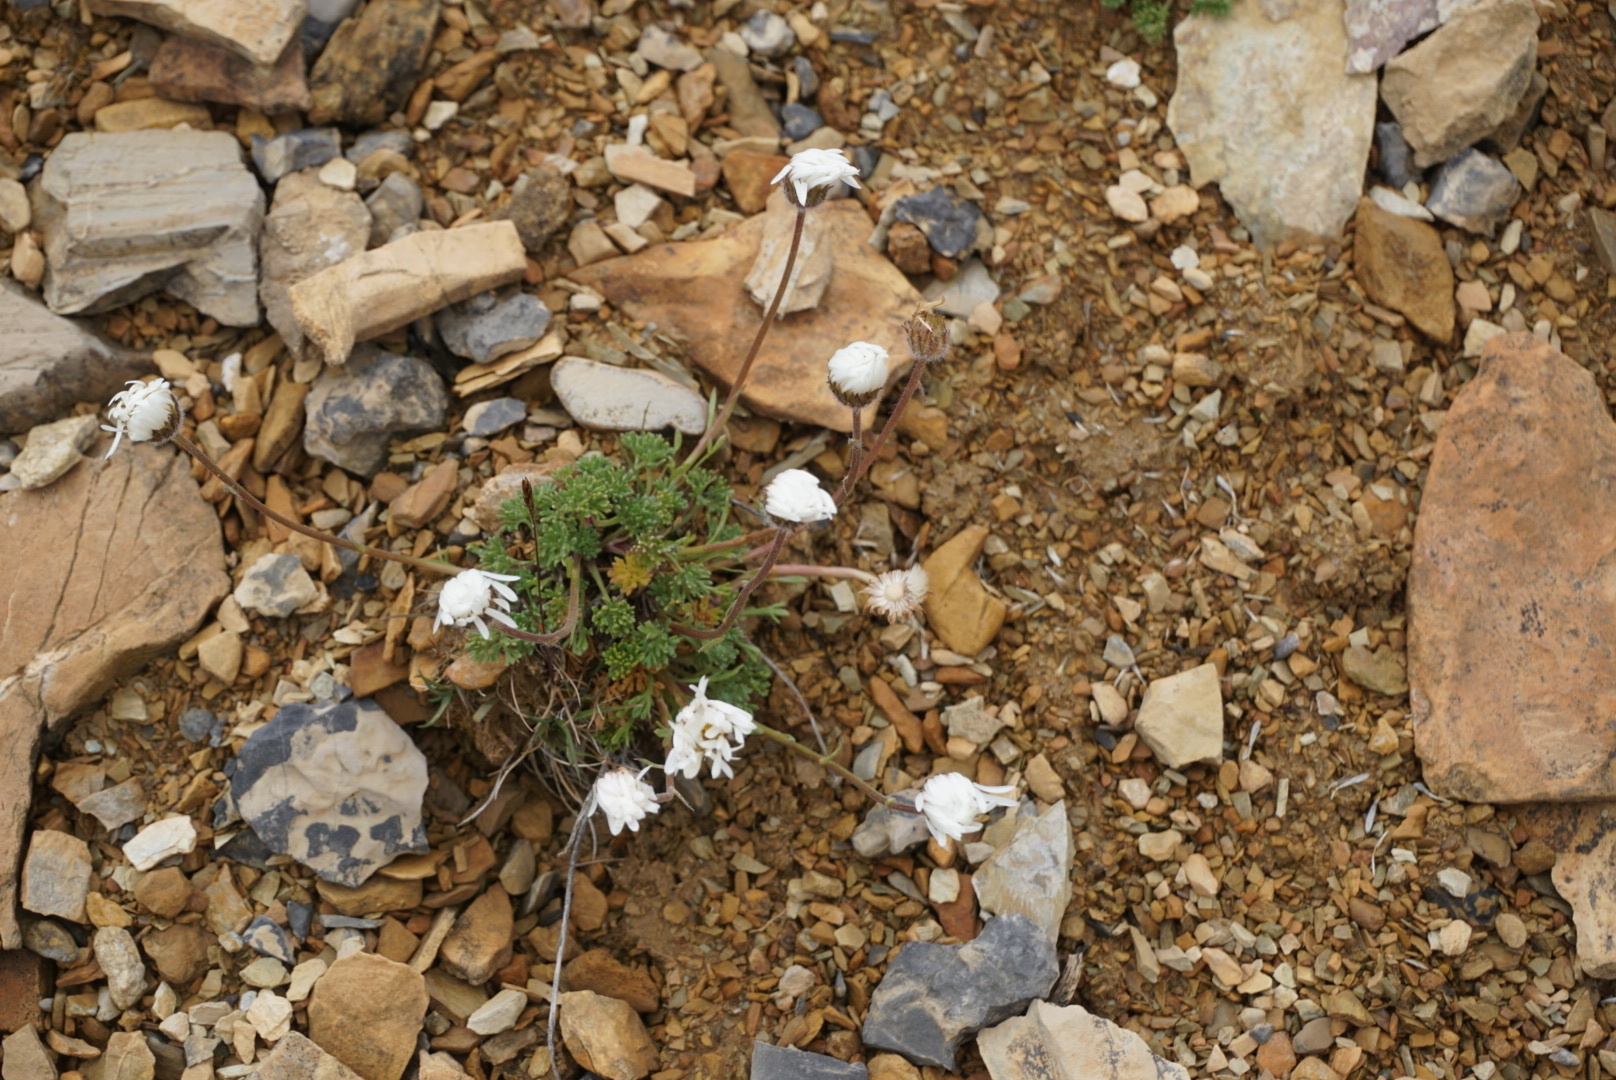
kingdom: Plantae
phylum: Tracheophyta
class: Magnoliopsida
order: Asterales
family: Asteraceae
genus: Erigeron
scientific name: Erigeron compositus
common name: Dwarf mountain fleabane
